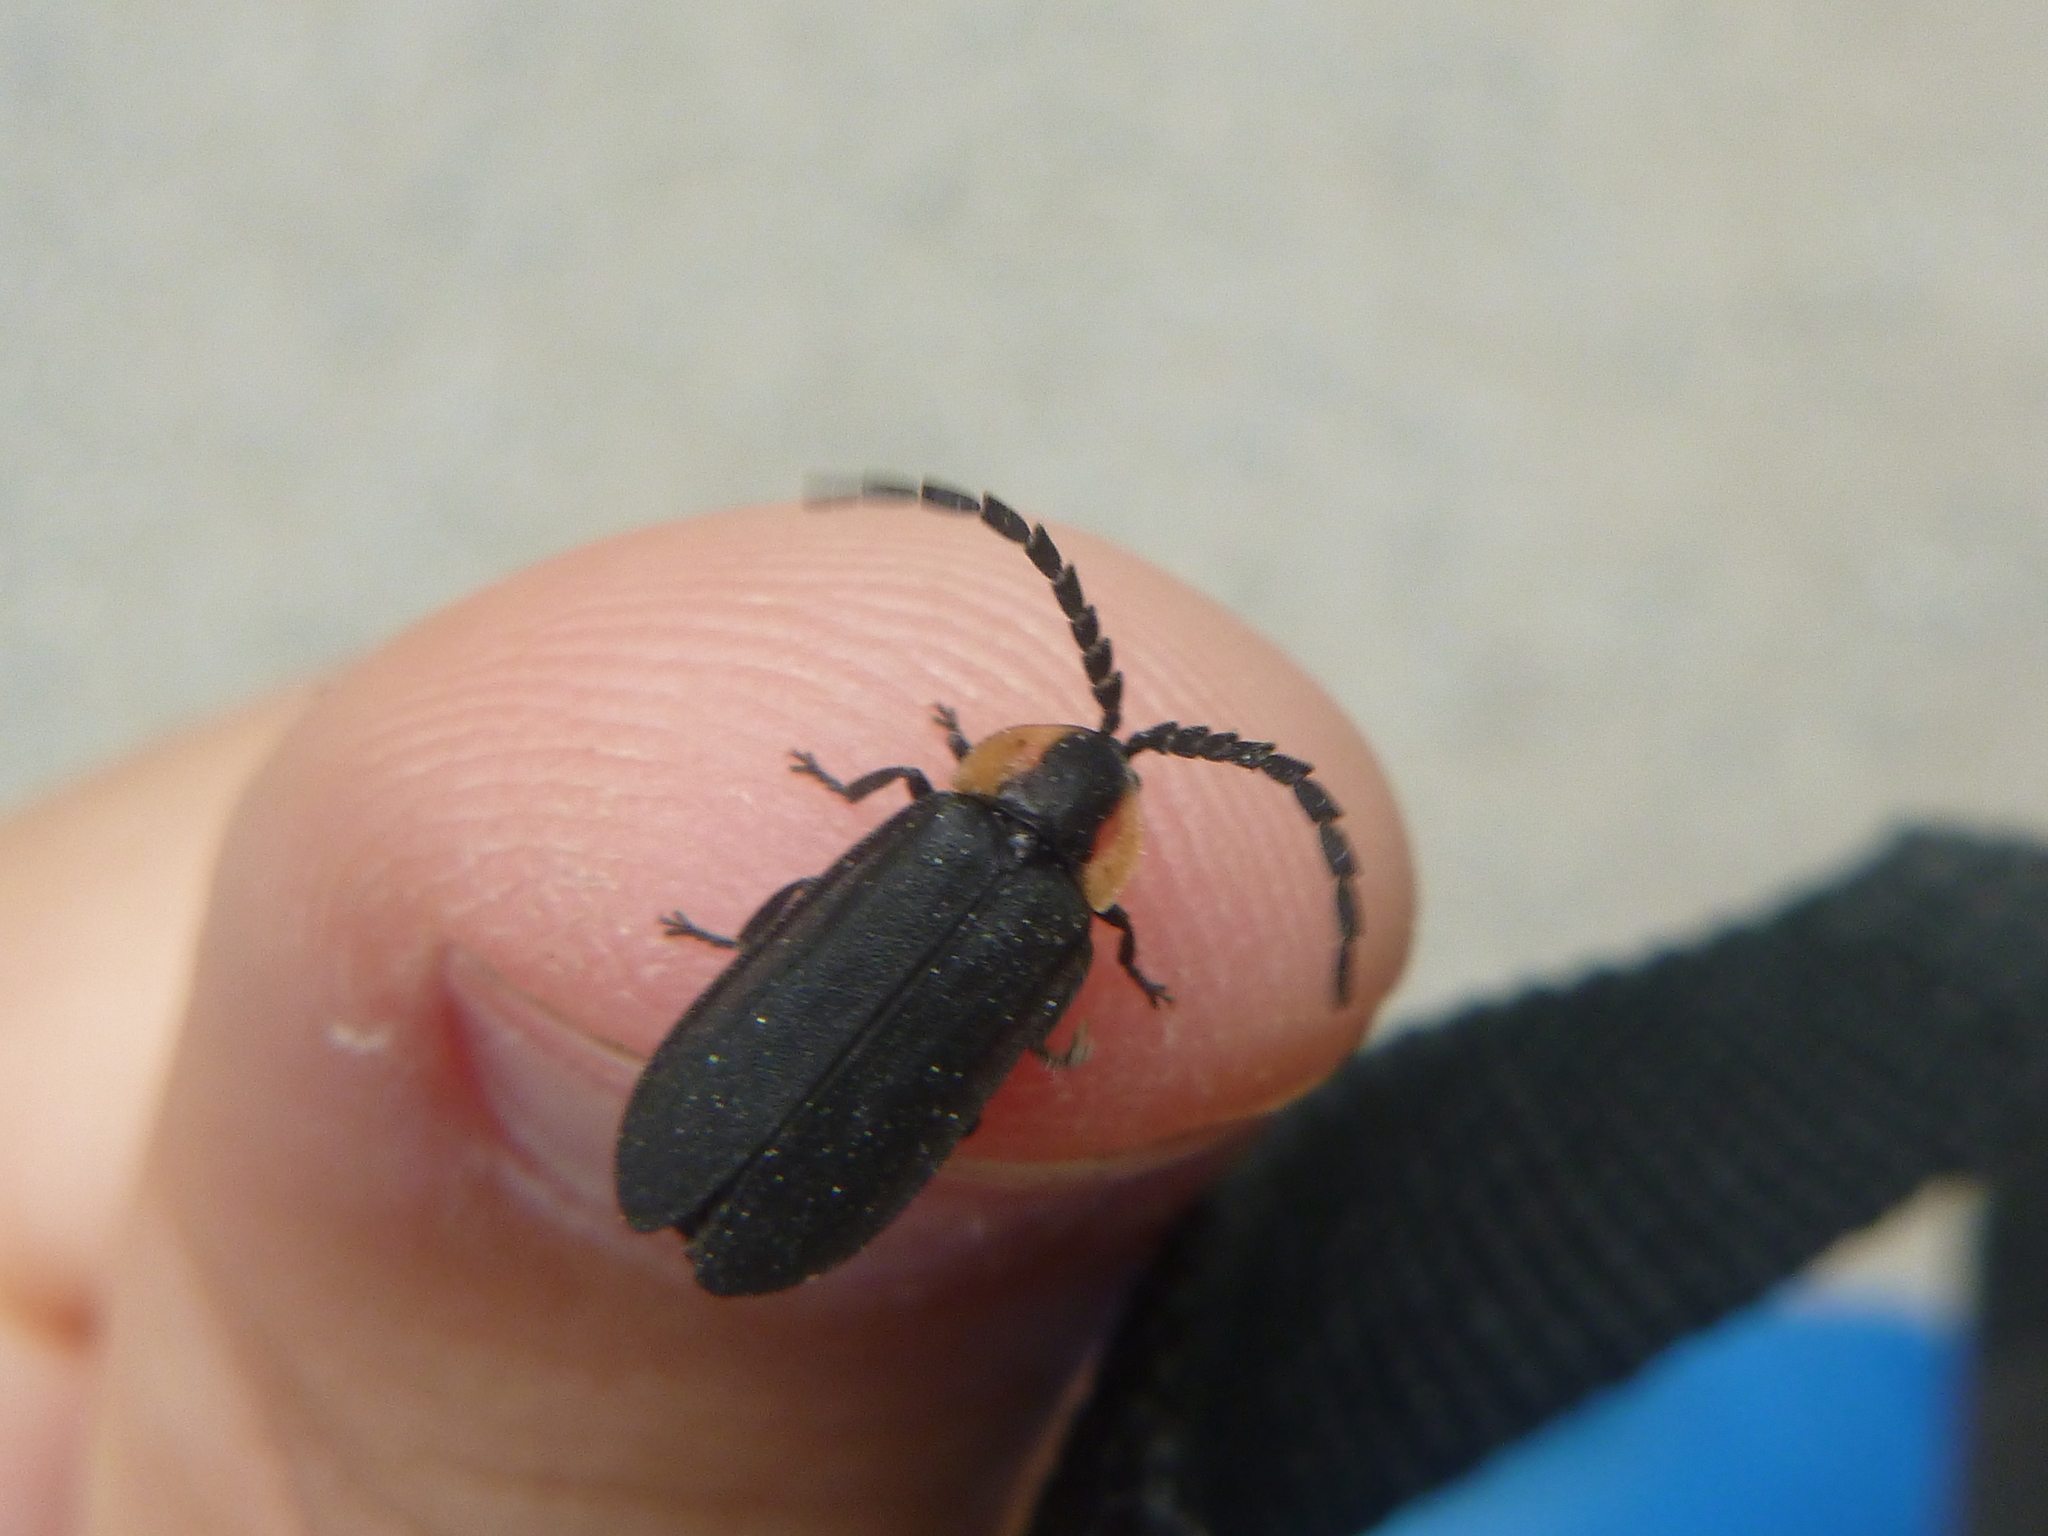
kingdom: Animalia
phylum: Arthropoda
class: Insecta
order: Coleoptera
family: Lampyridae
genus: Lucidota
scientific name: Lucidota atra
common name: Black firefly
